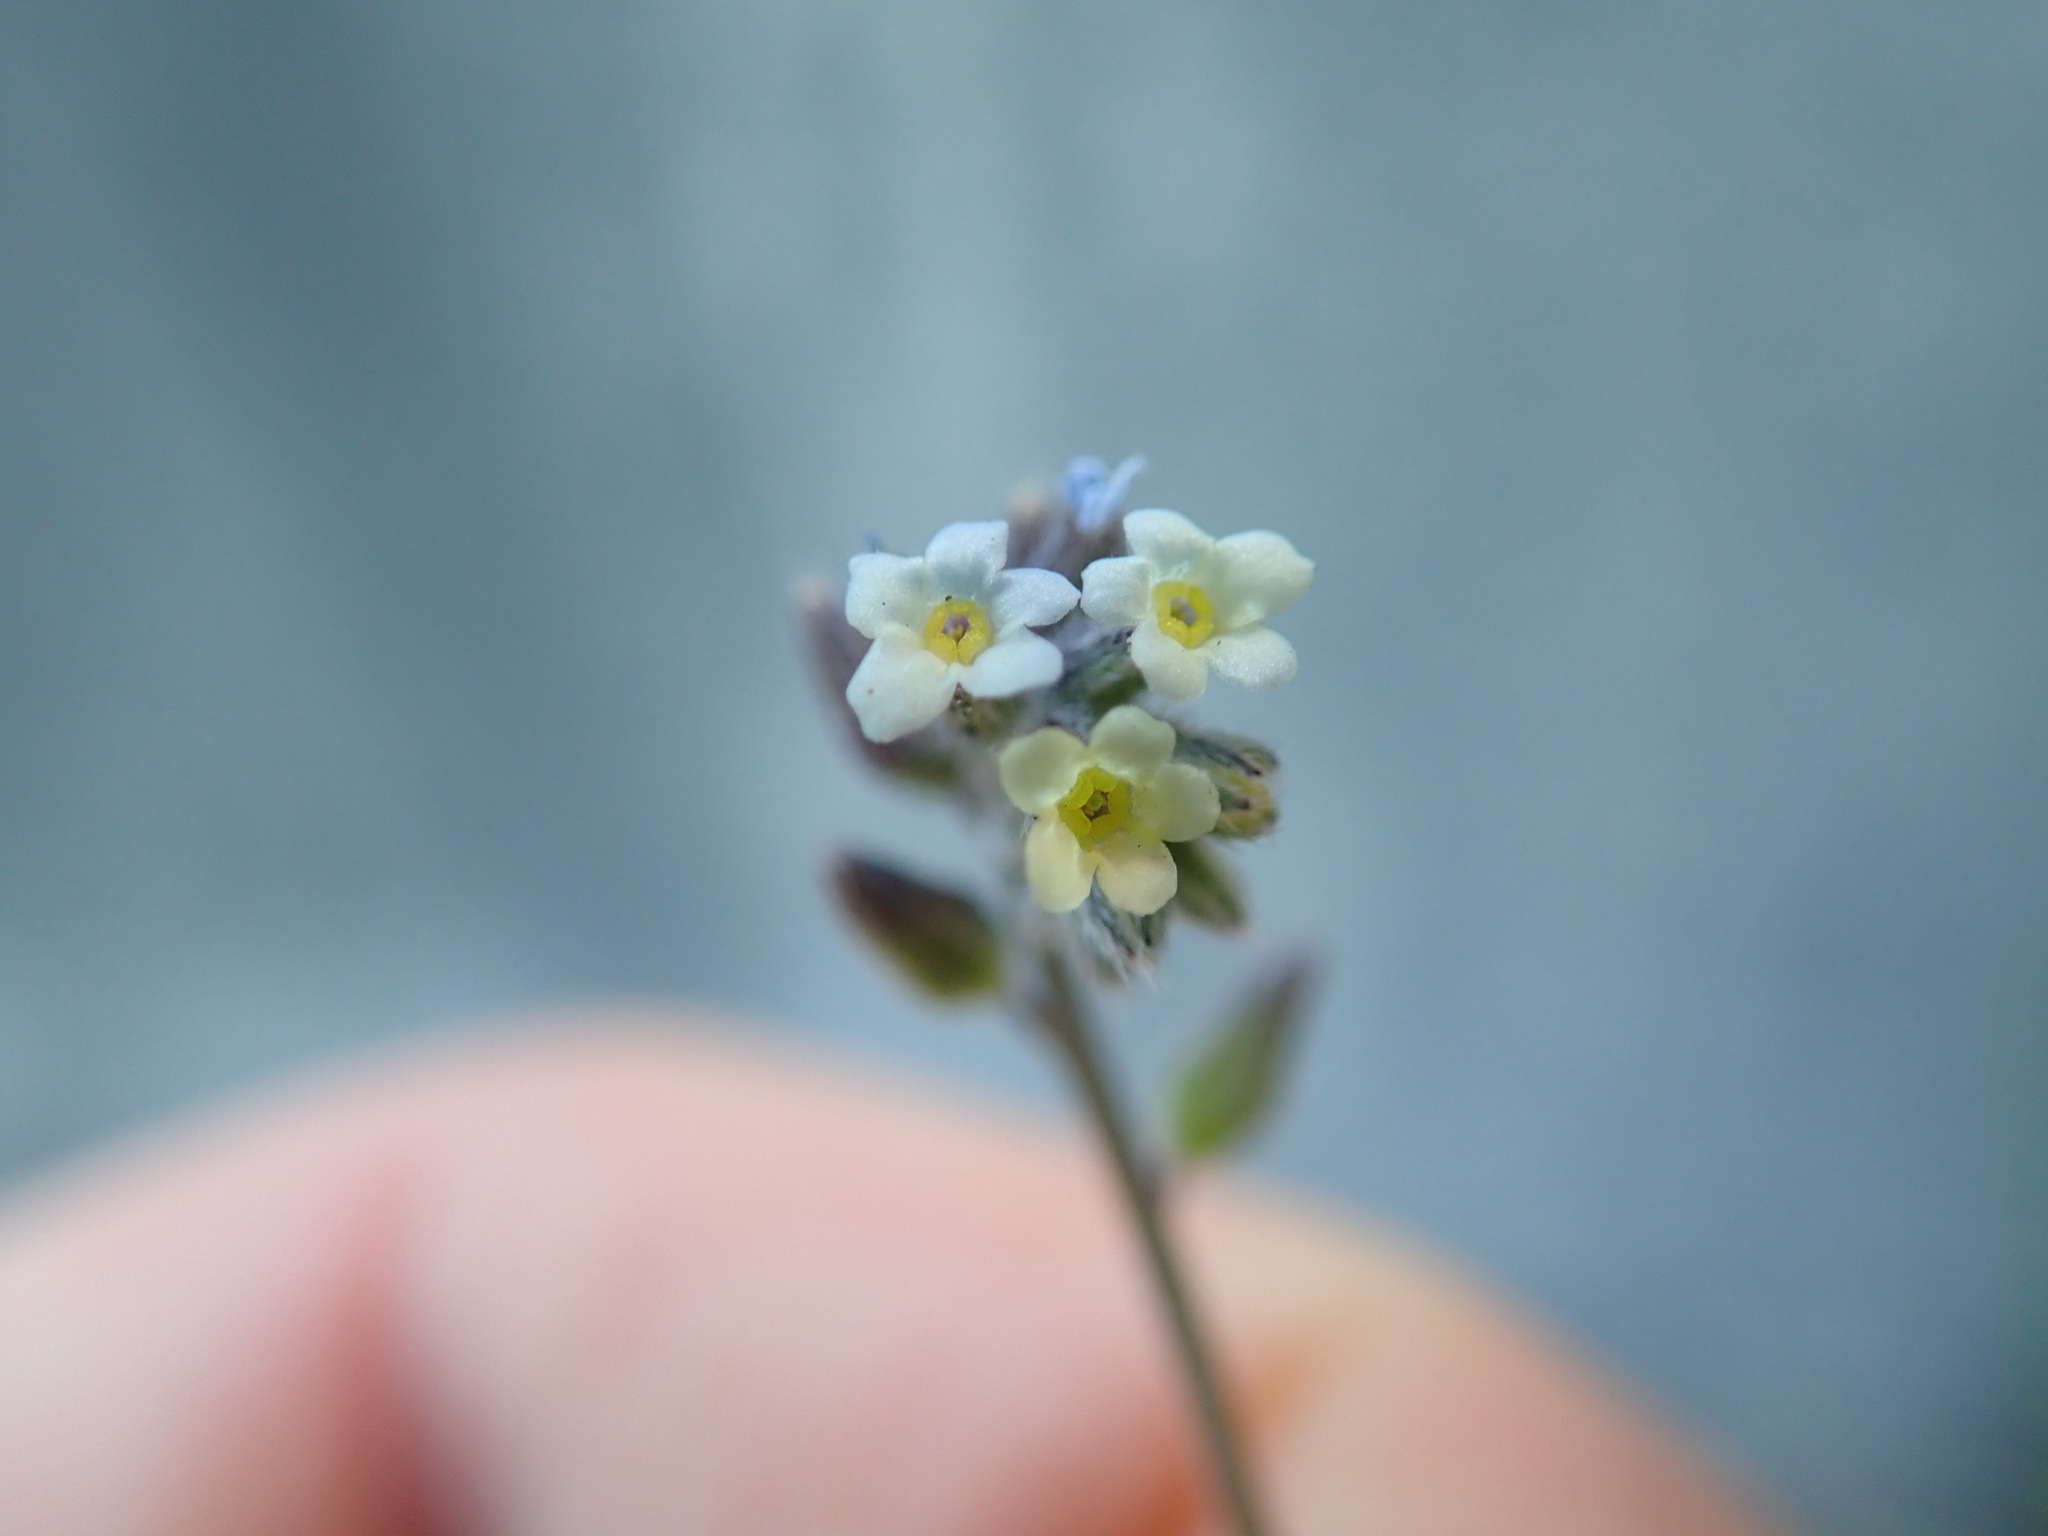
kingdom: Plantae
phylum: Tracheophyta
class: Magnoliopsida
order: Boraginales
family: Boraginaceae
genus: Myosotis
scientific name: Myosotis discolor
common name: Changing forget-me-not
